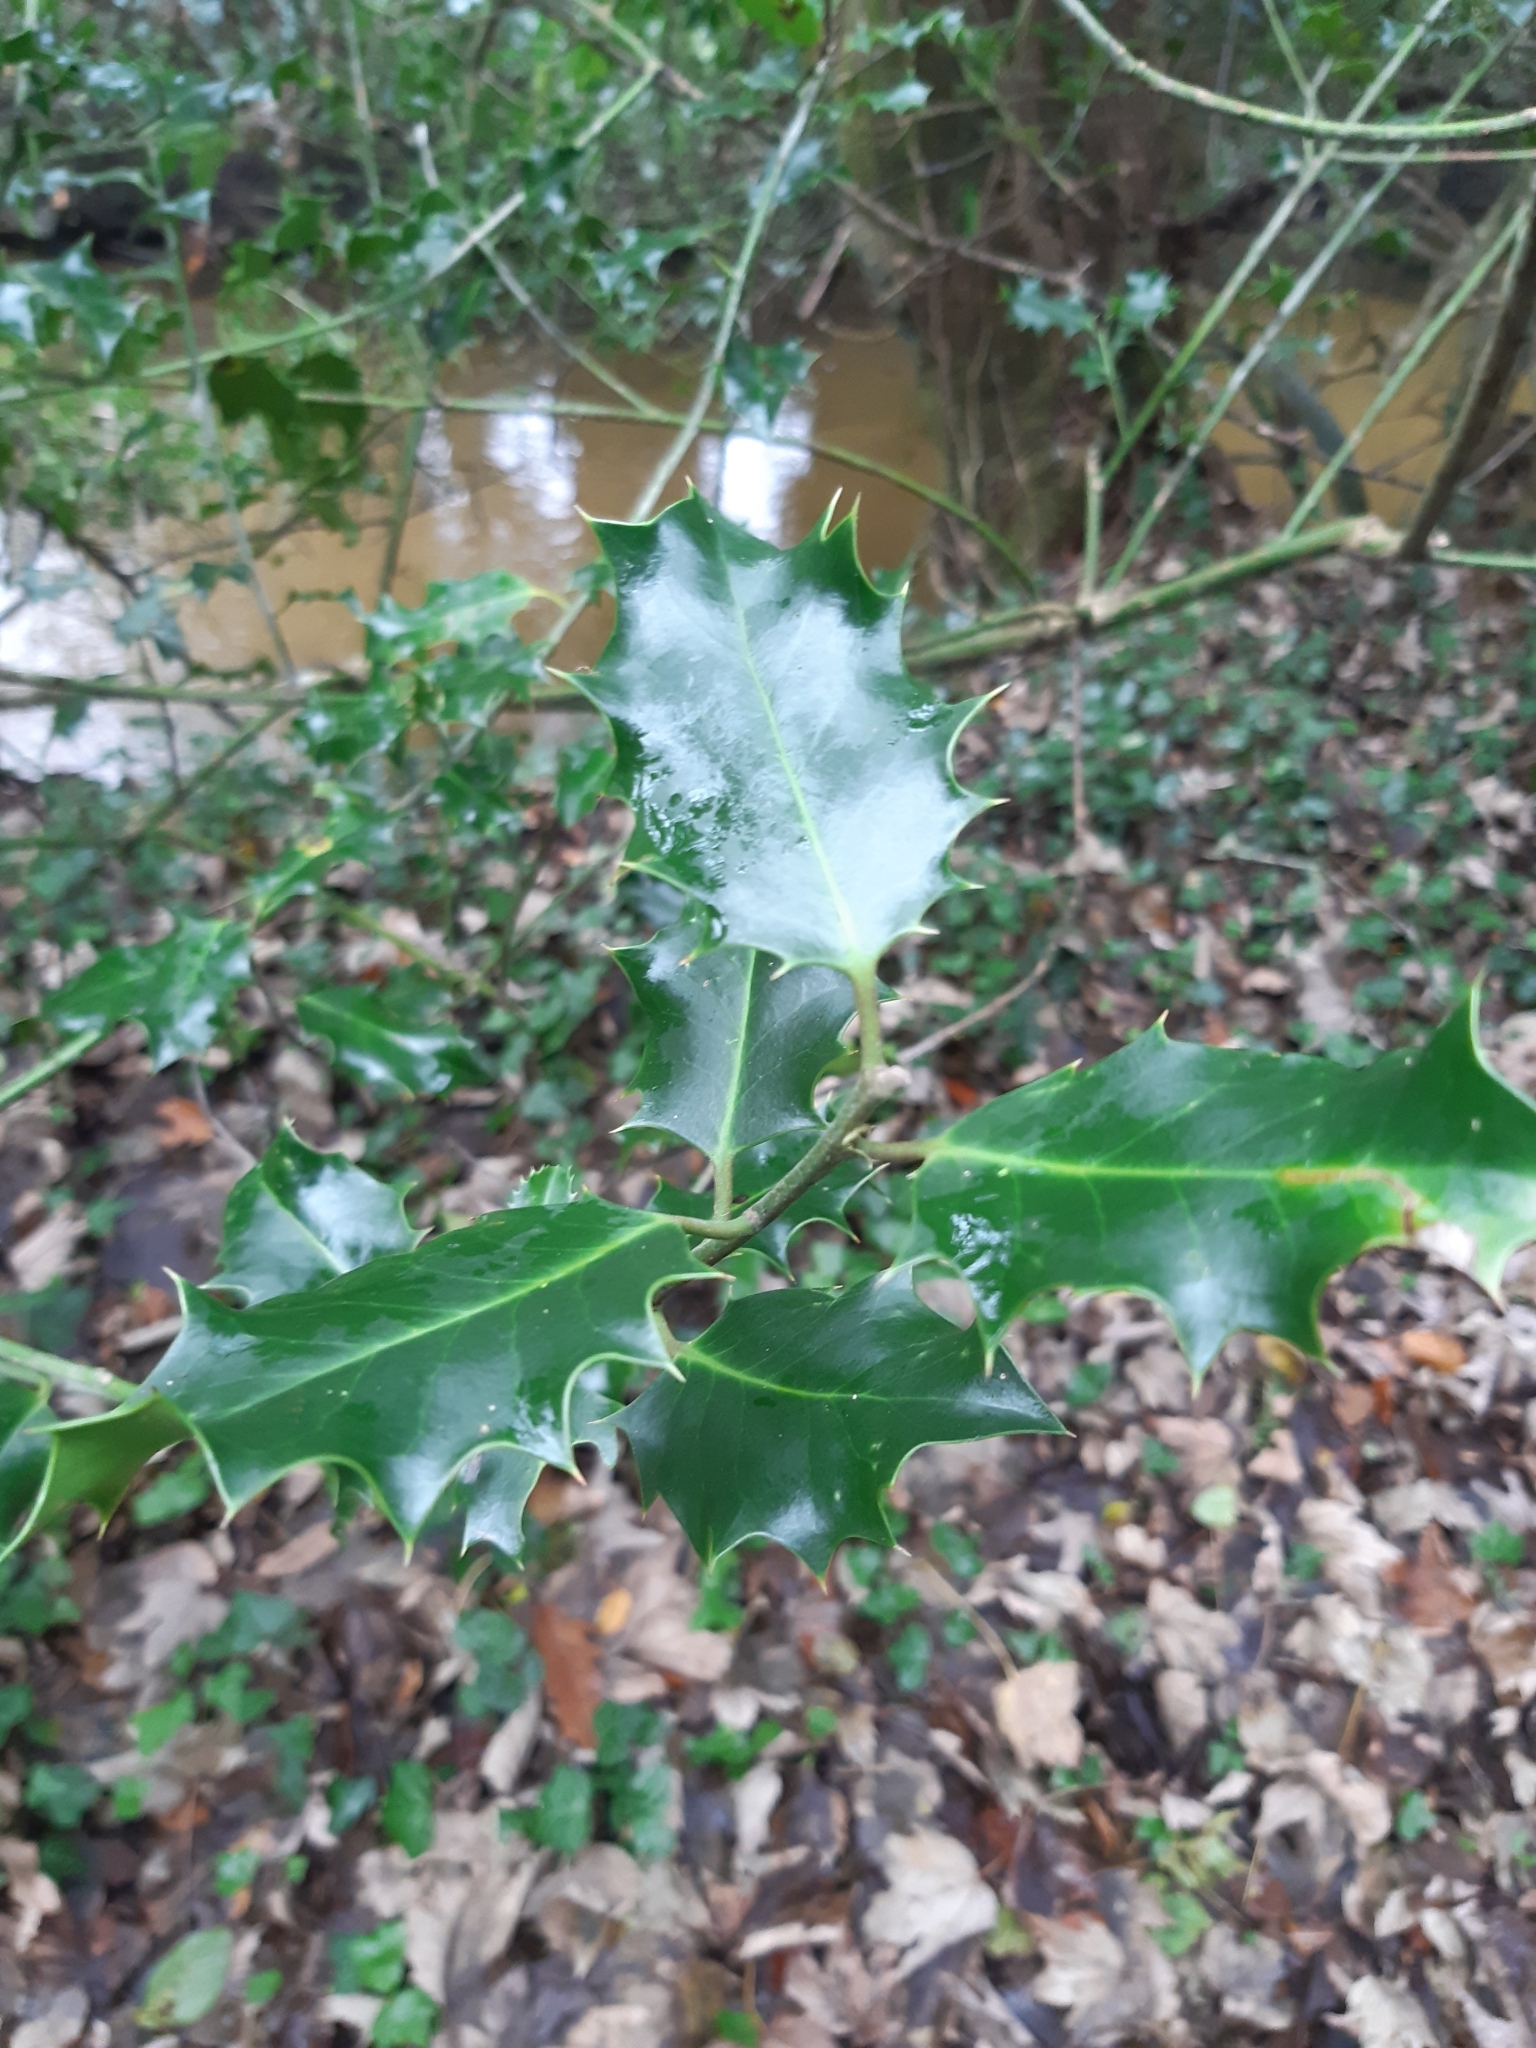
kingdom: Plantae
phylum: Tracheophyta
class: Magnoliopsida
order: Aquifoliales
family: Aquifoliaceae
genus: Ilex
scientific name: Ilex aquifolium
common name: English holly
